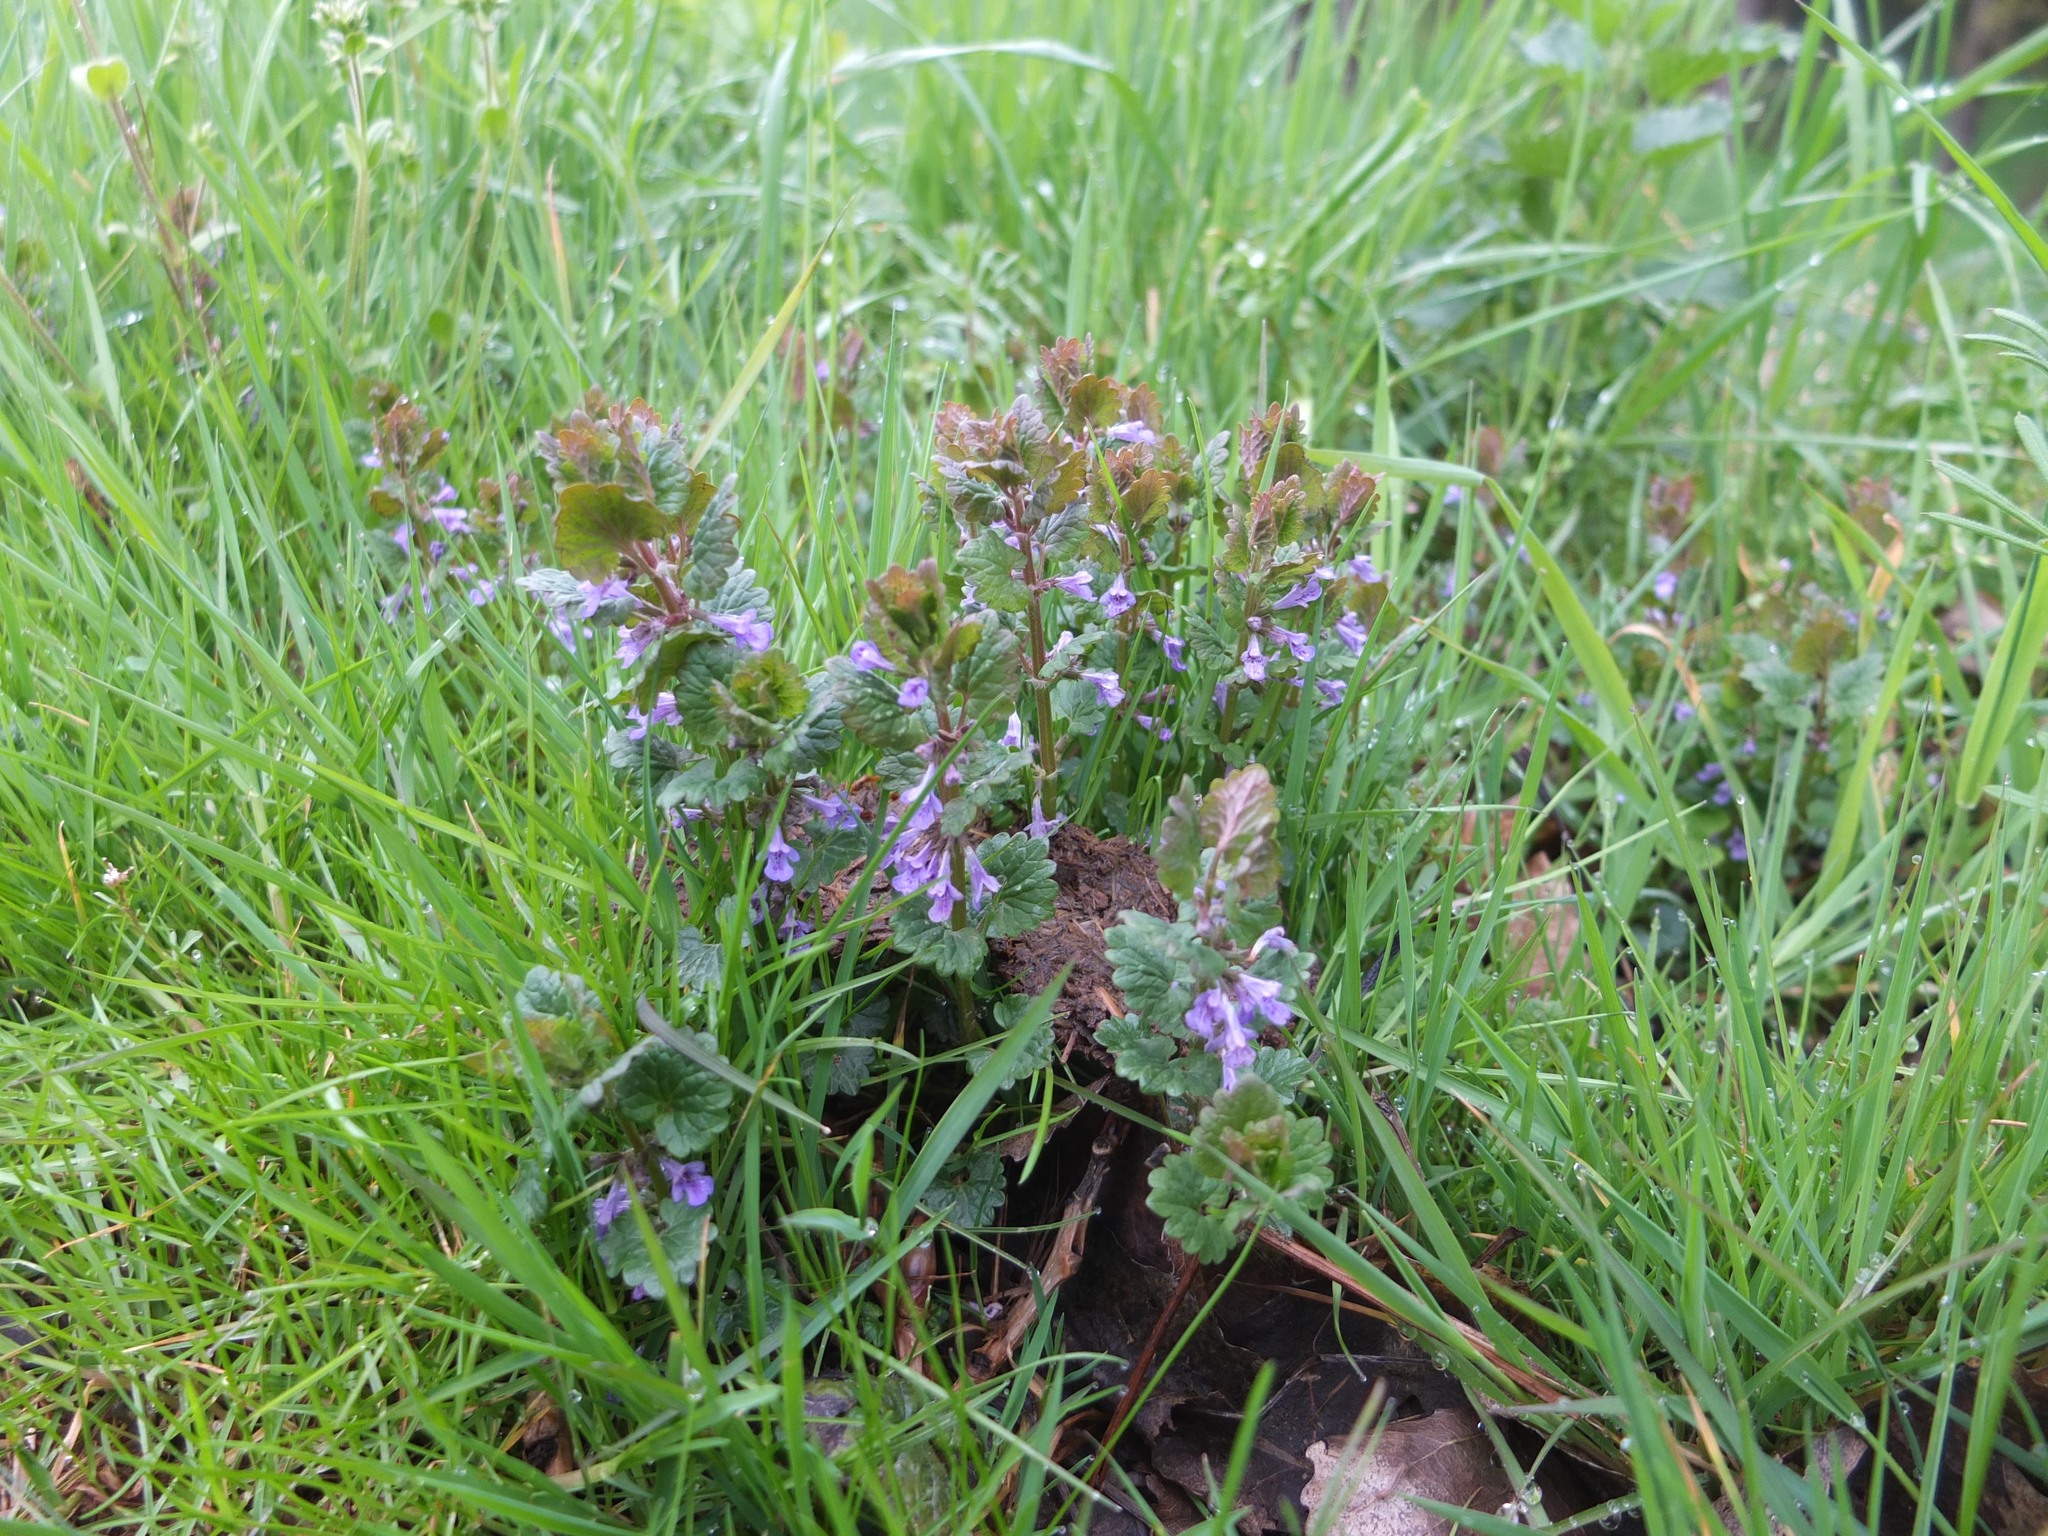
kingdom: Plantae
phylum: Tracheophyta
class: Magnoliopsida
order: Lamiales
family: Lamiaceae
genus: Glechoma
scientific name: Glechoma hederacea
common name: Ground ivy
